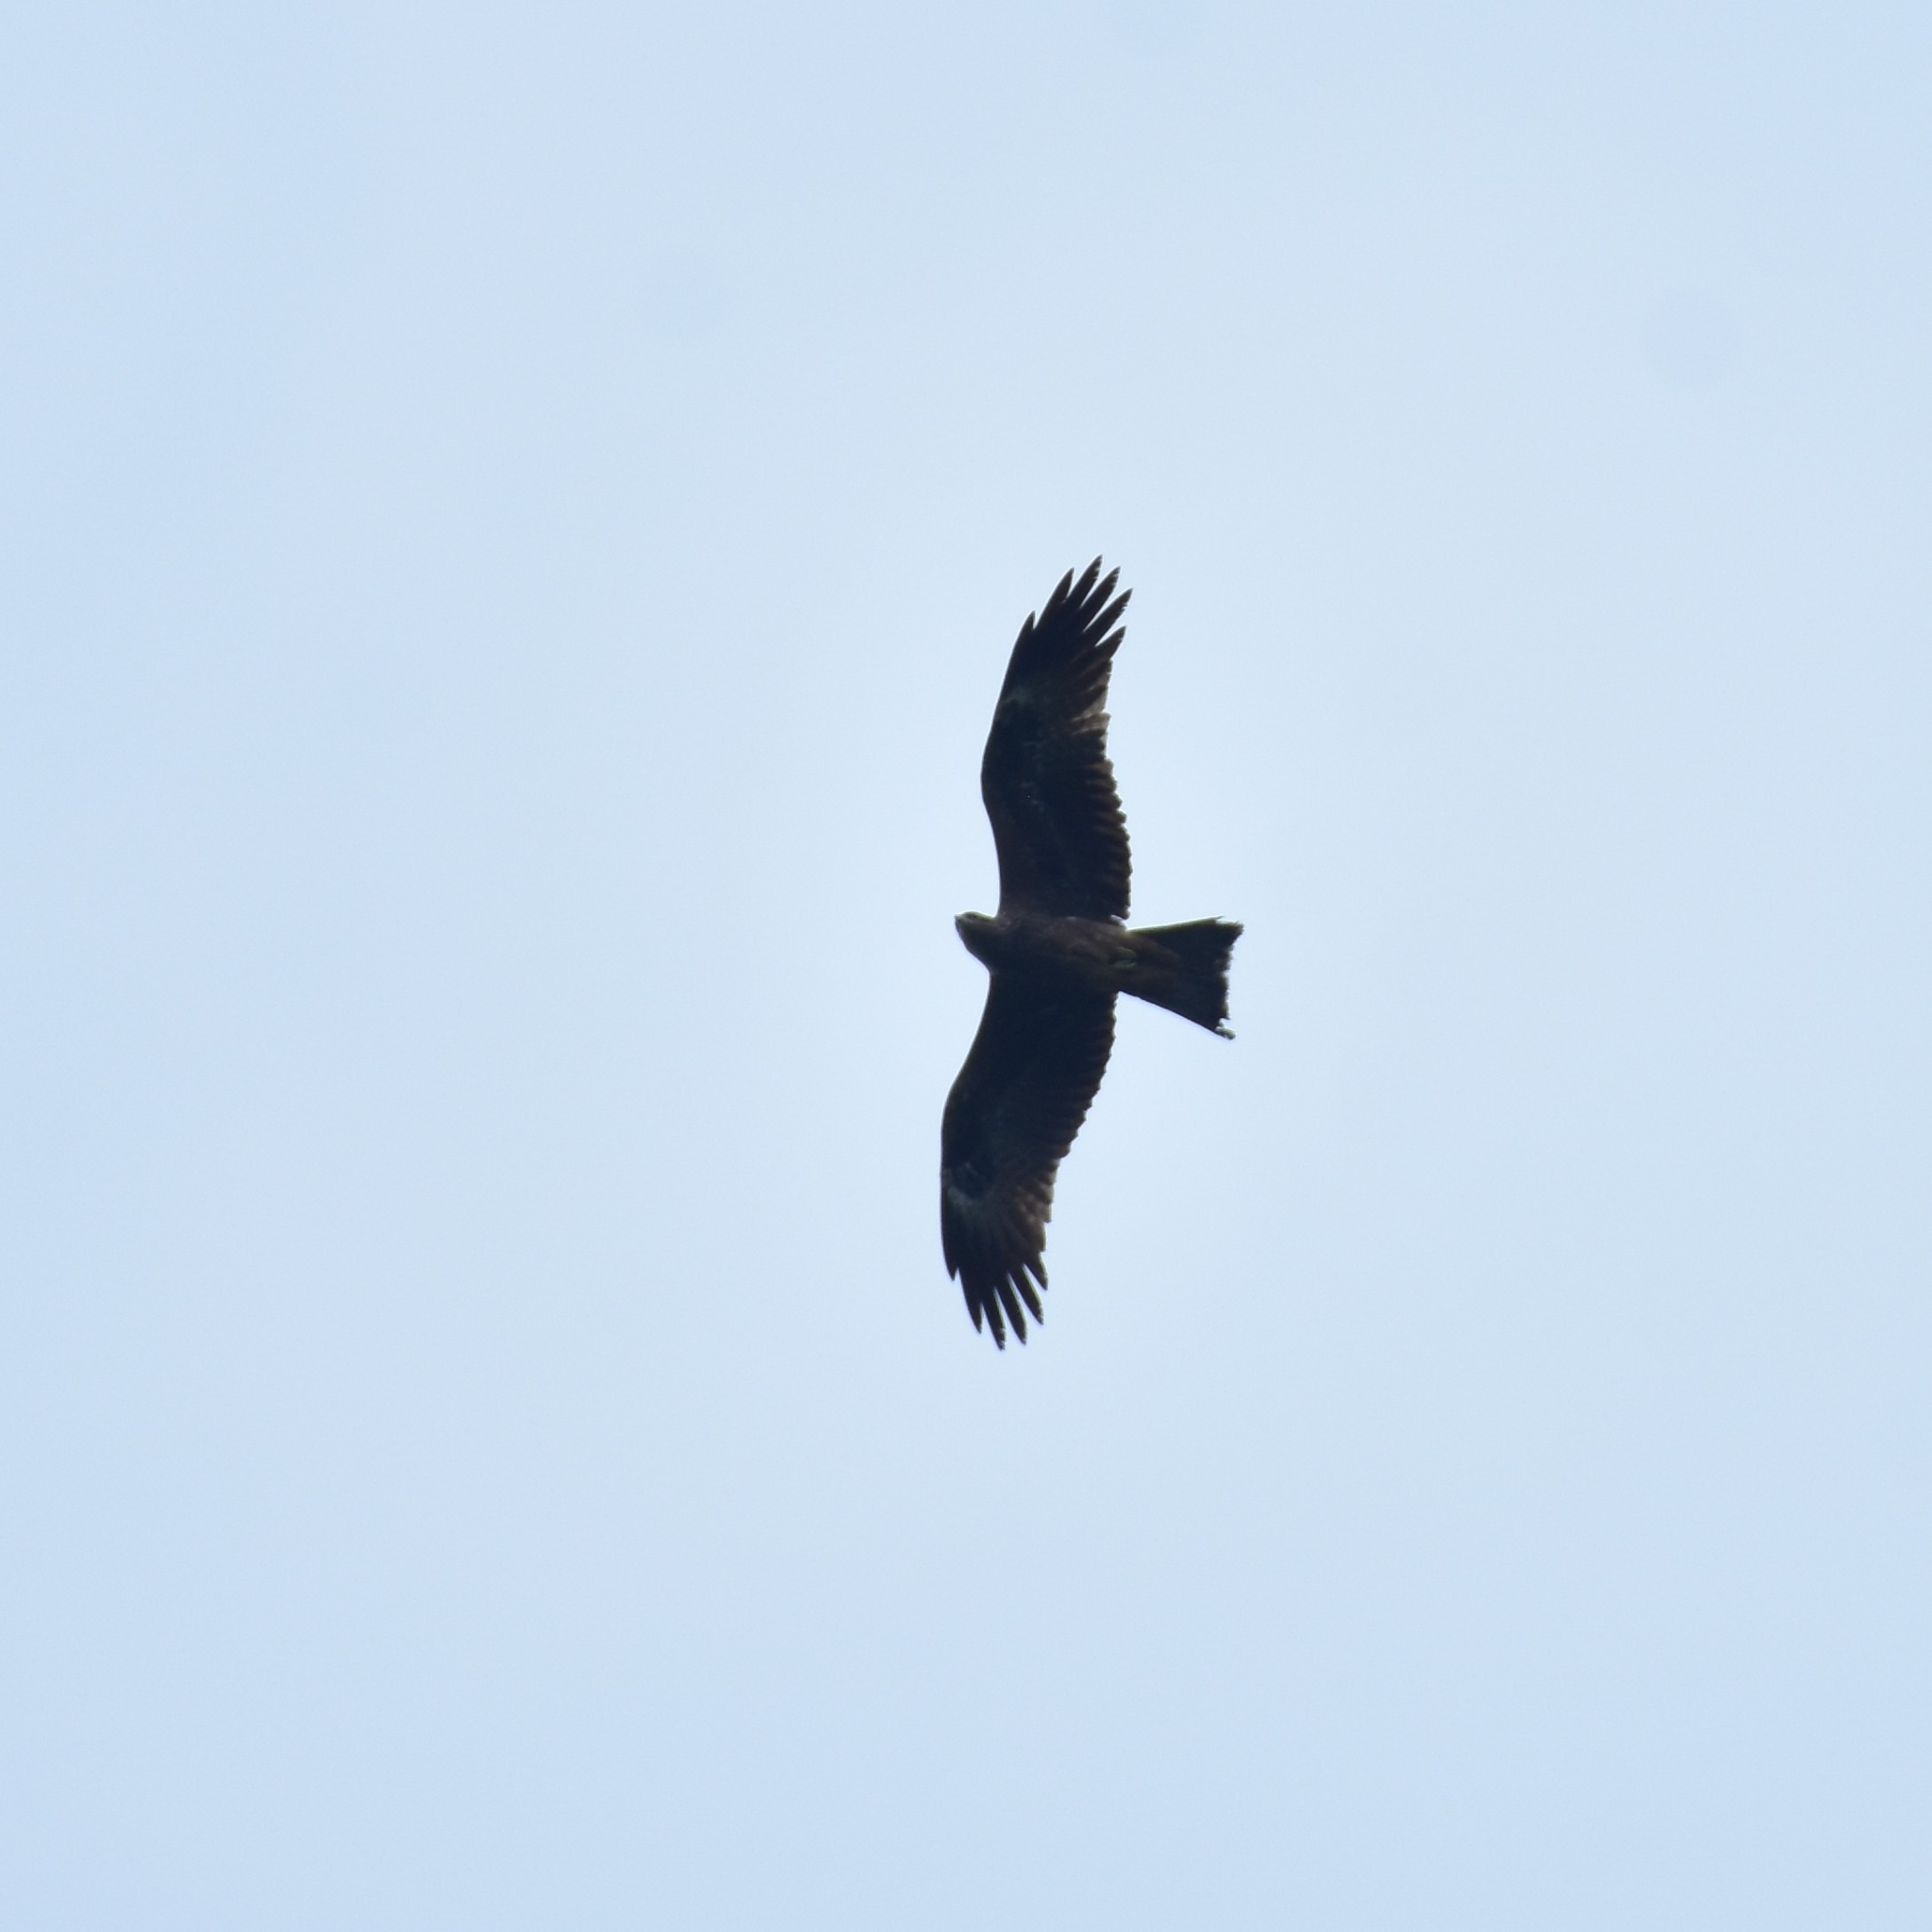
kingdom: Animalia
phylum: Chordata
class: Aves
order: Accipitriformes
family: Accipitridae
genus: Milvus
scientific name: Milvus migrans
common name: Black kite
